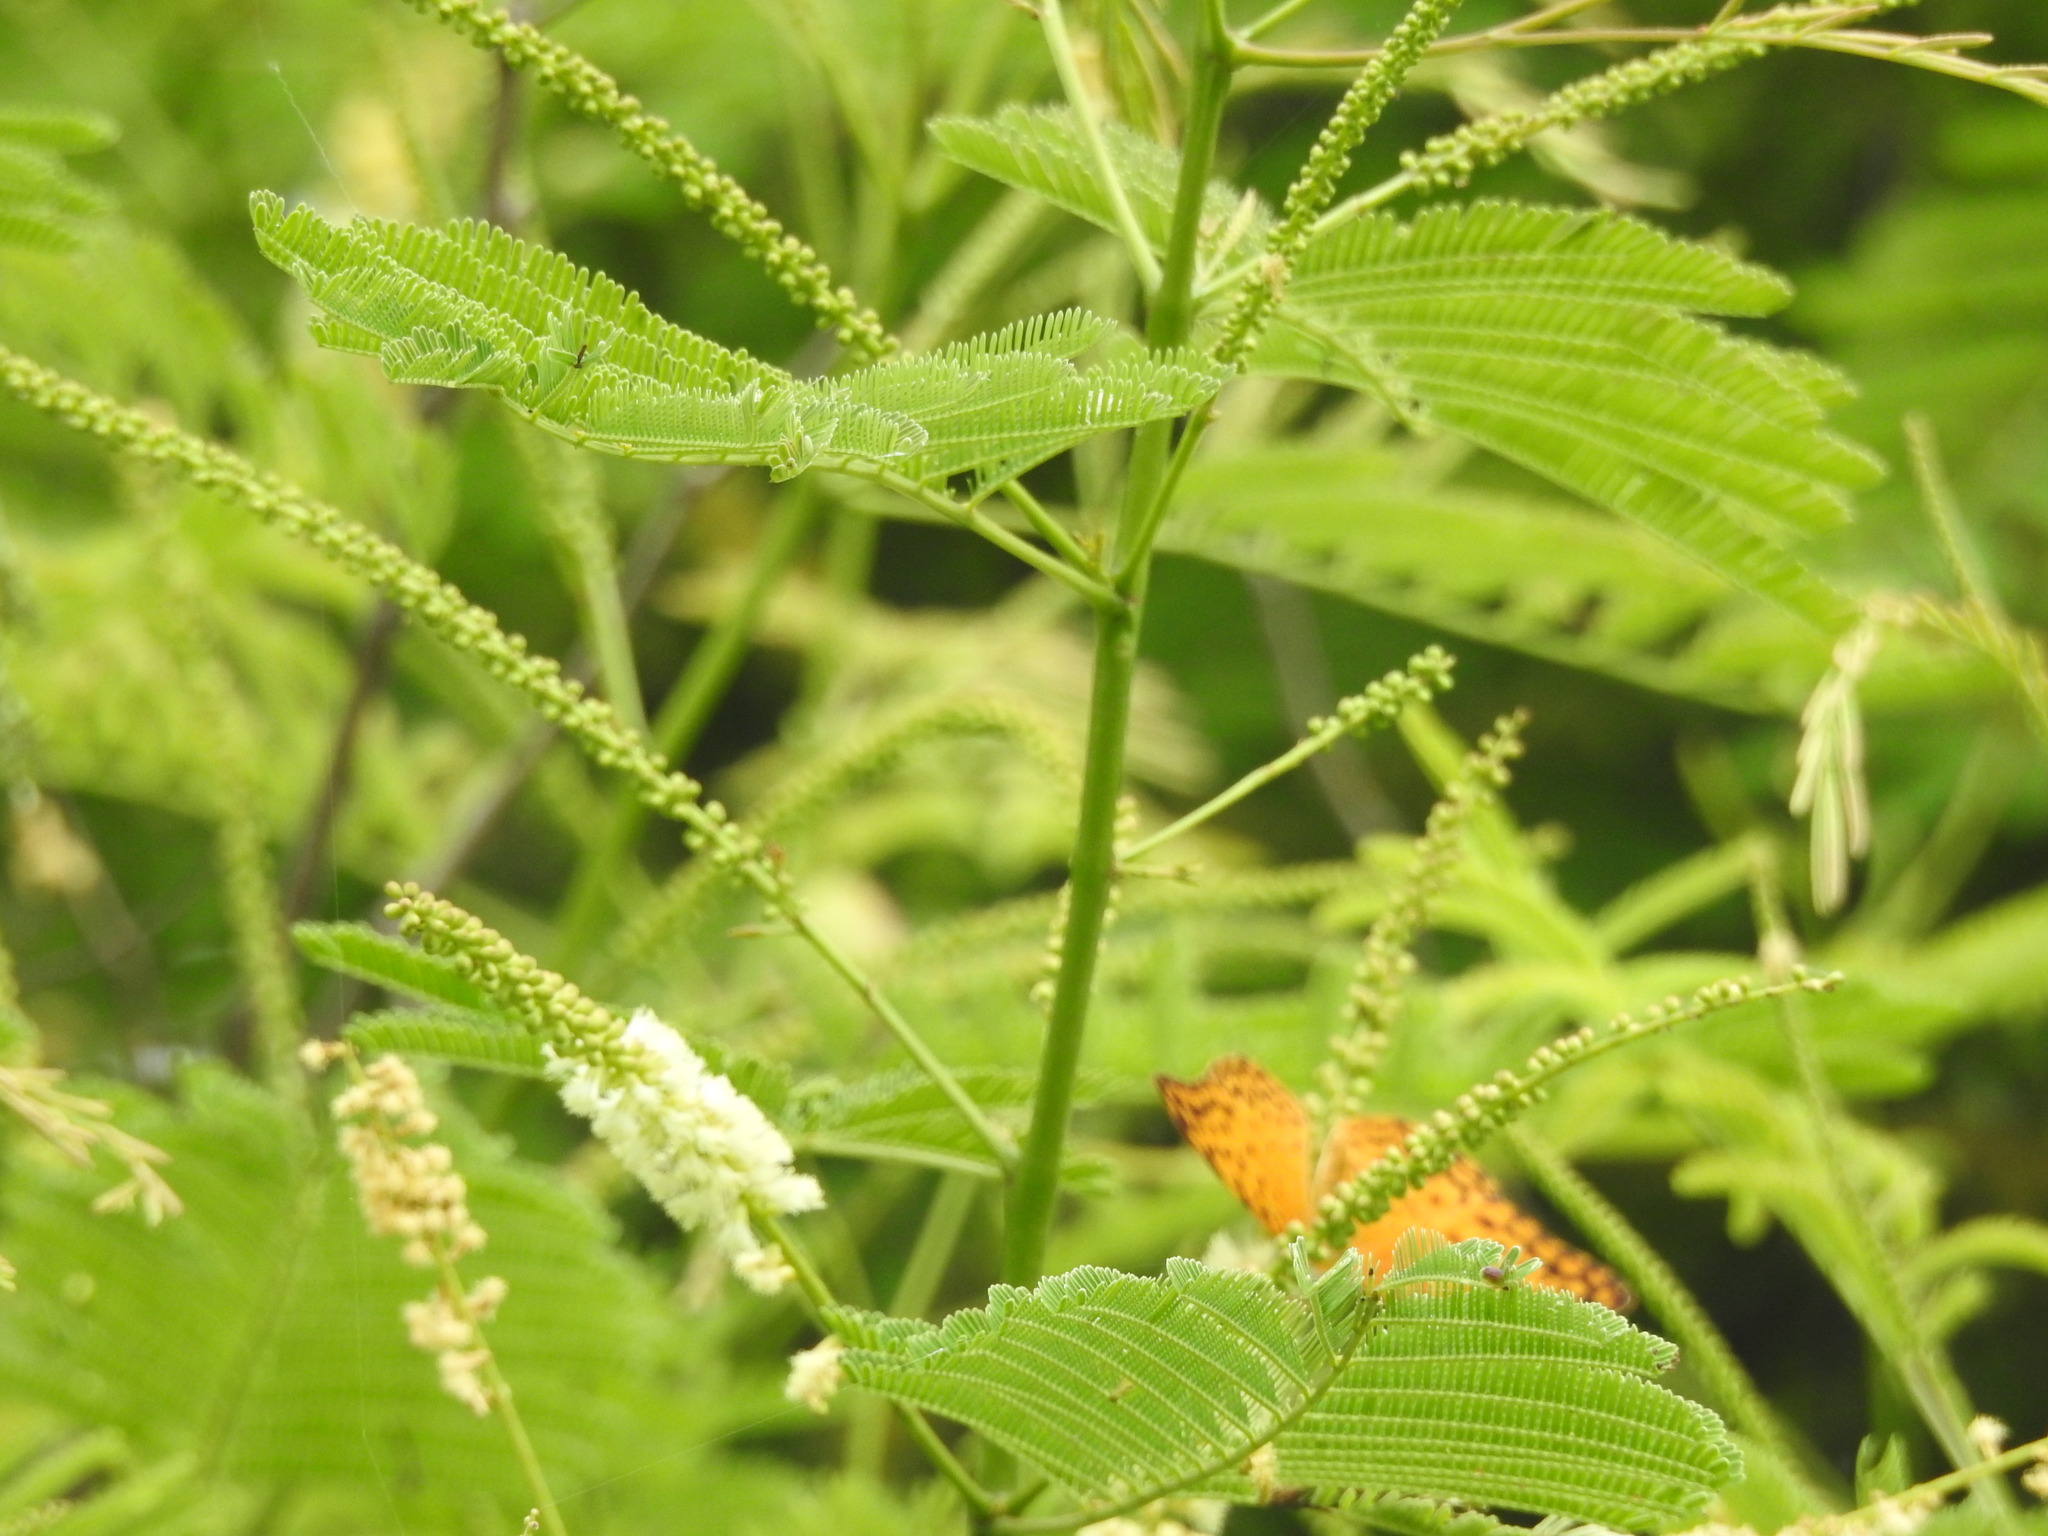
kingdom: Animalia
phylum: Arthropoda
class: Insecta
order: Lepidoptera
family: Nymphalidae
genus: Phalanta
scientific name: Phalanta phalantha
